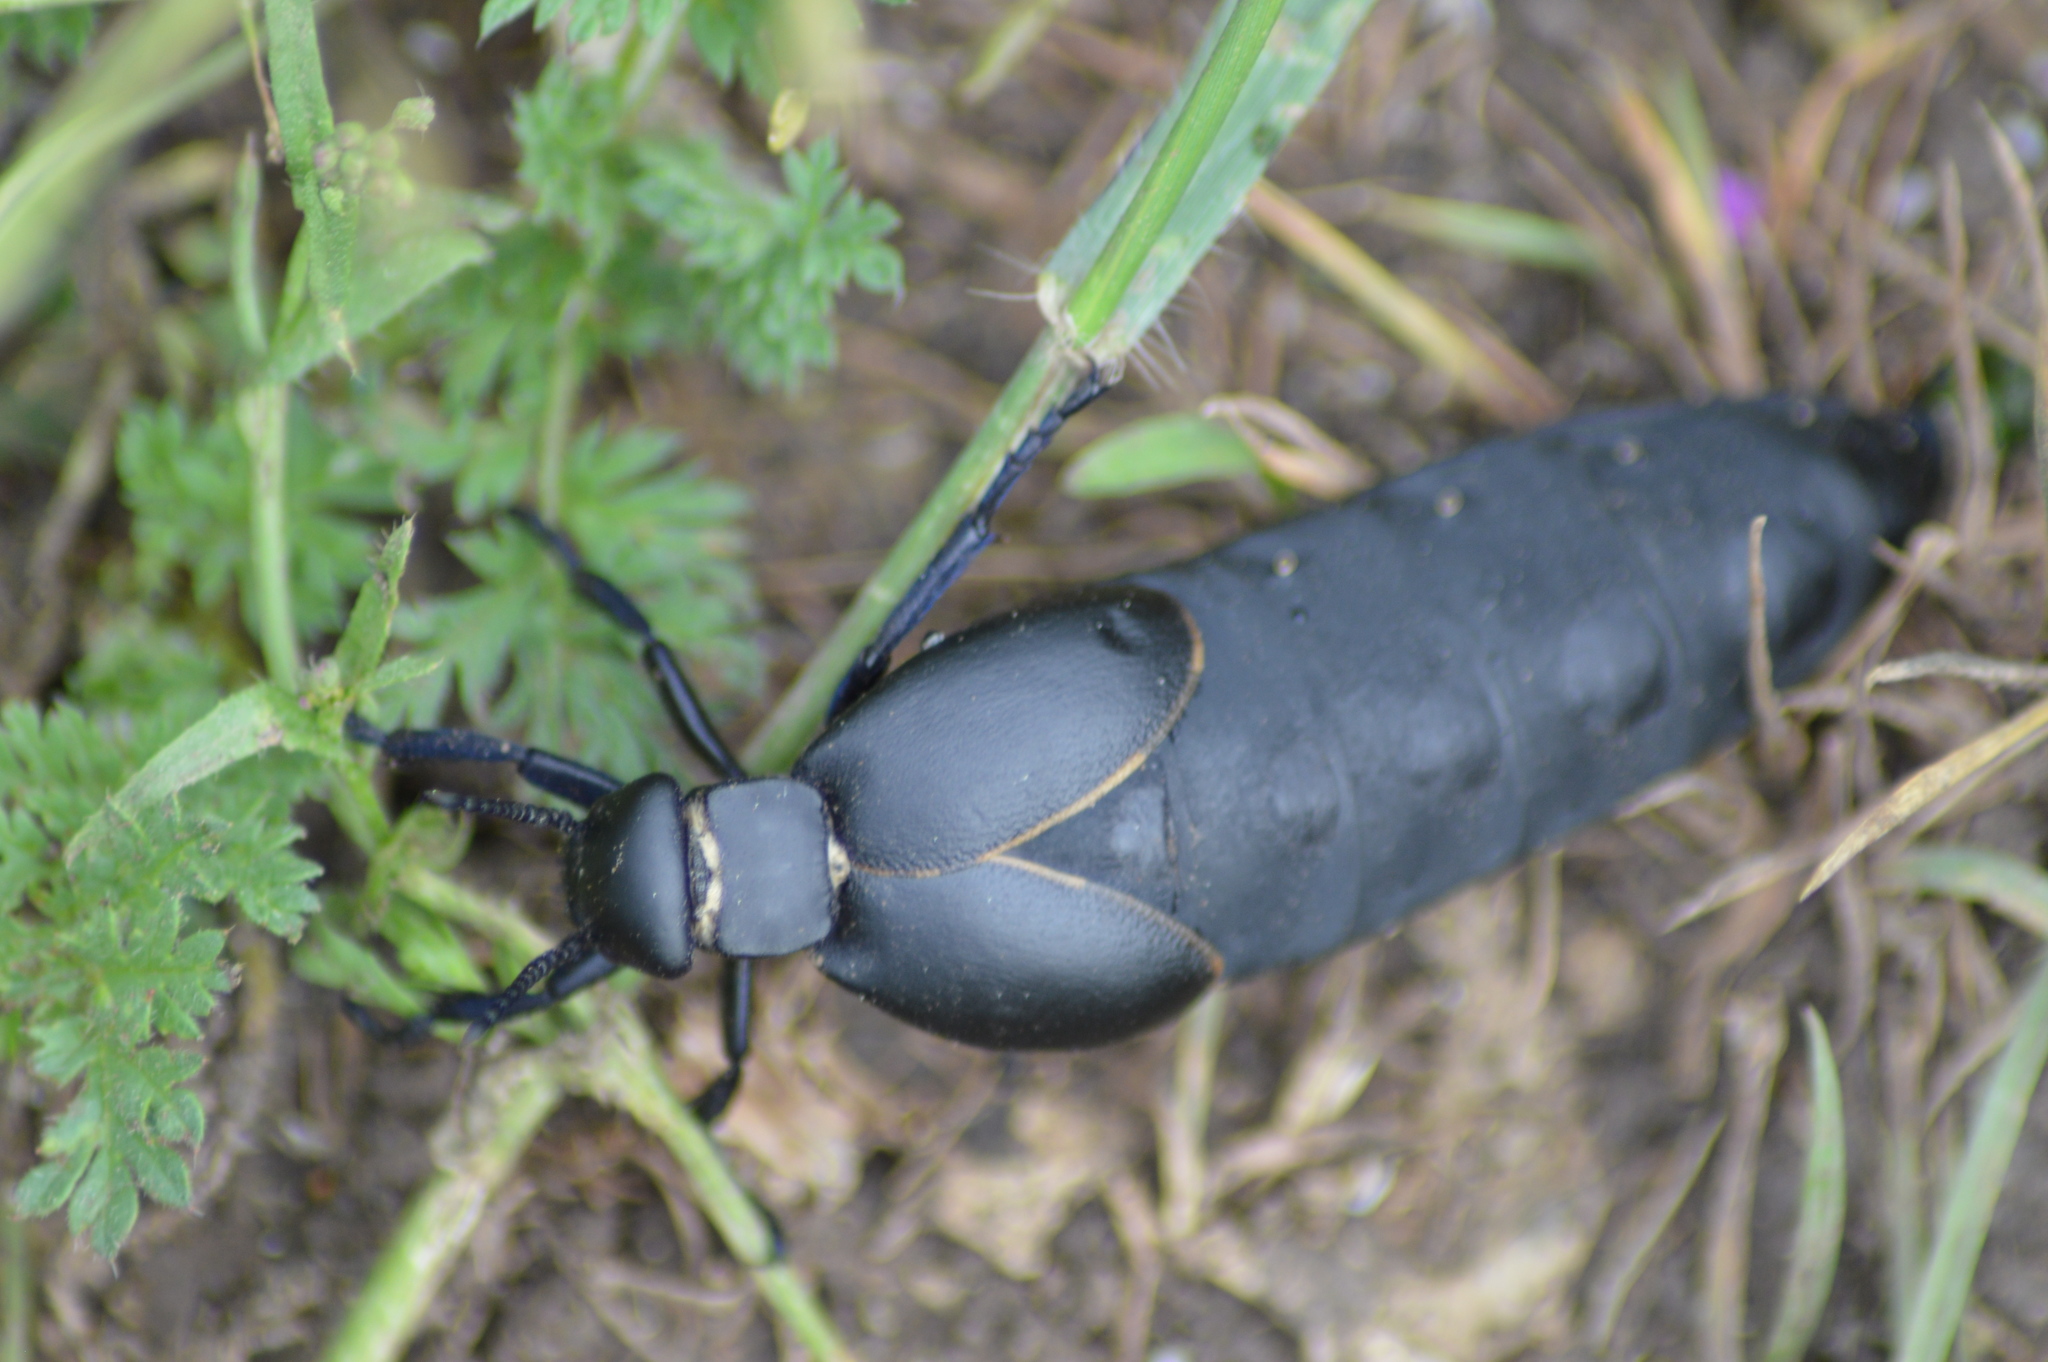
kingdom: Animalia
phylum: Arthropoda
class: Insecta
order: Coleoptera
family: Meloidae
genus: Meloe
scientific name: Meloe hungarus
